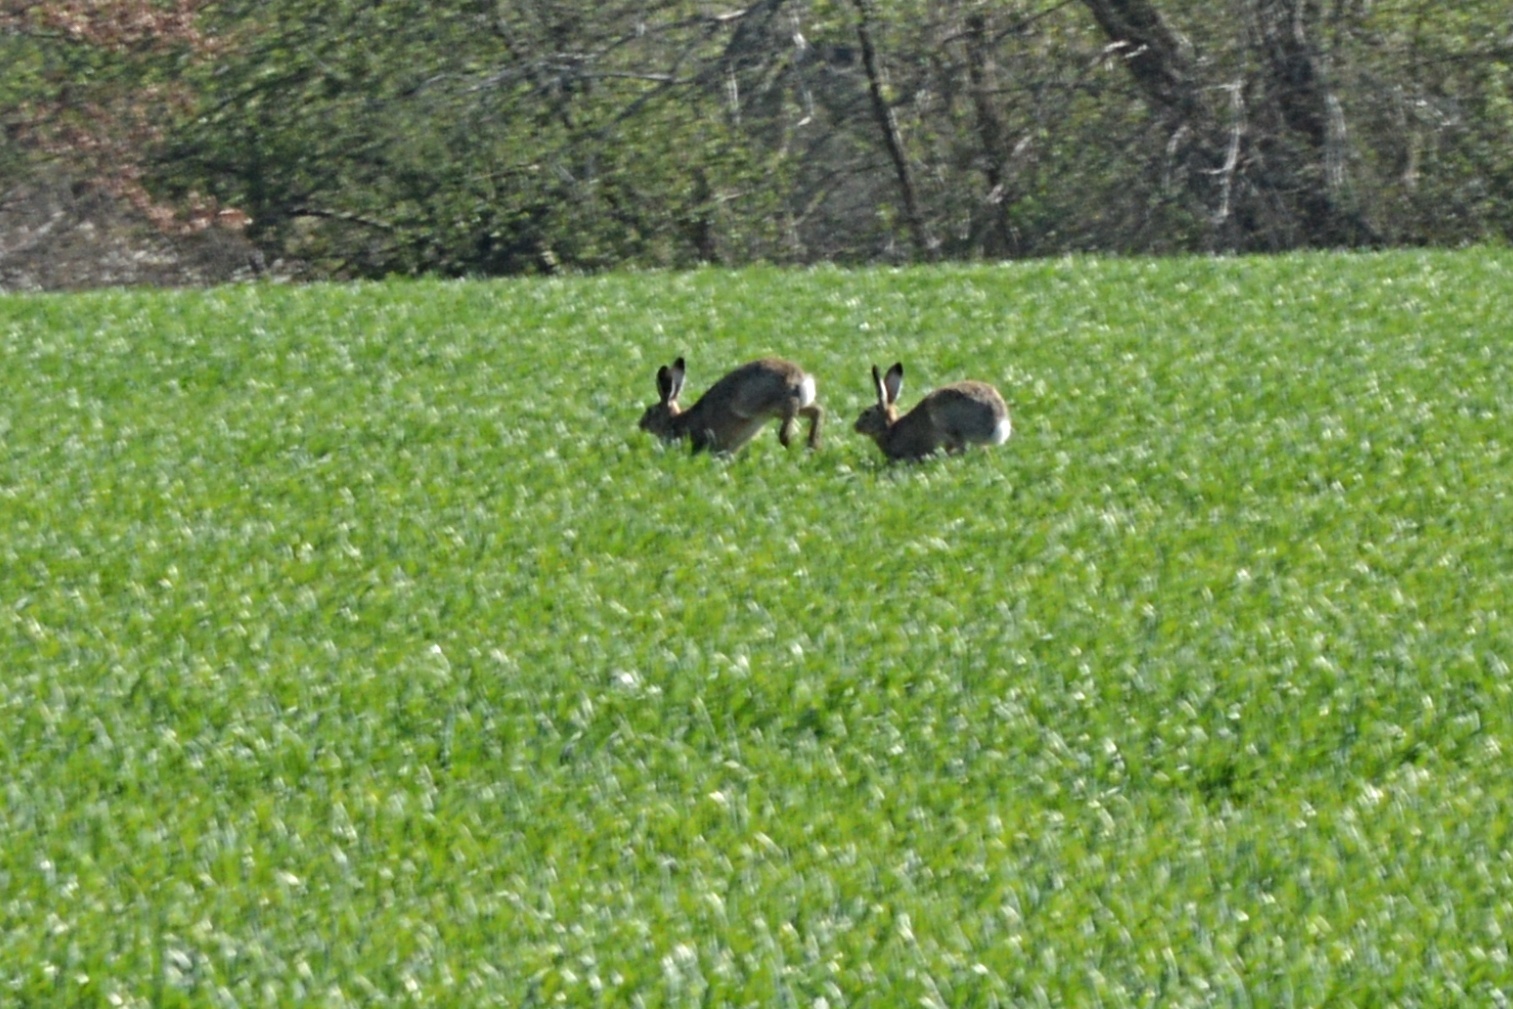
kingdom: Animalia
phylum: Chordata
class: Mammalia
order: Lagomorpha
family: Leporidae
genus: Lepus
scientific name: Lepus europaeus
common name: European hare
